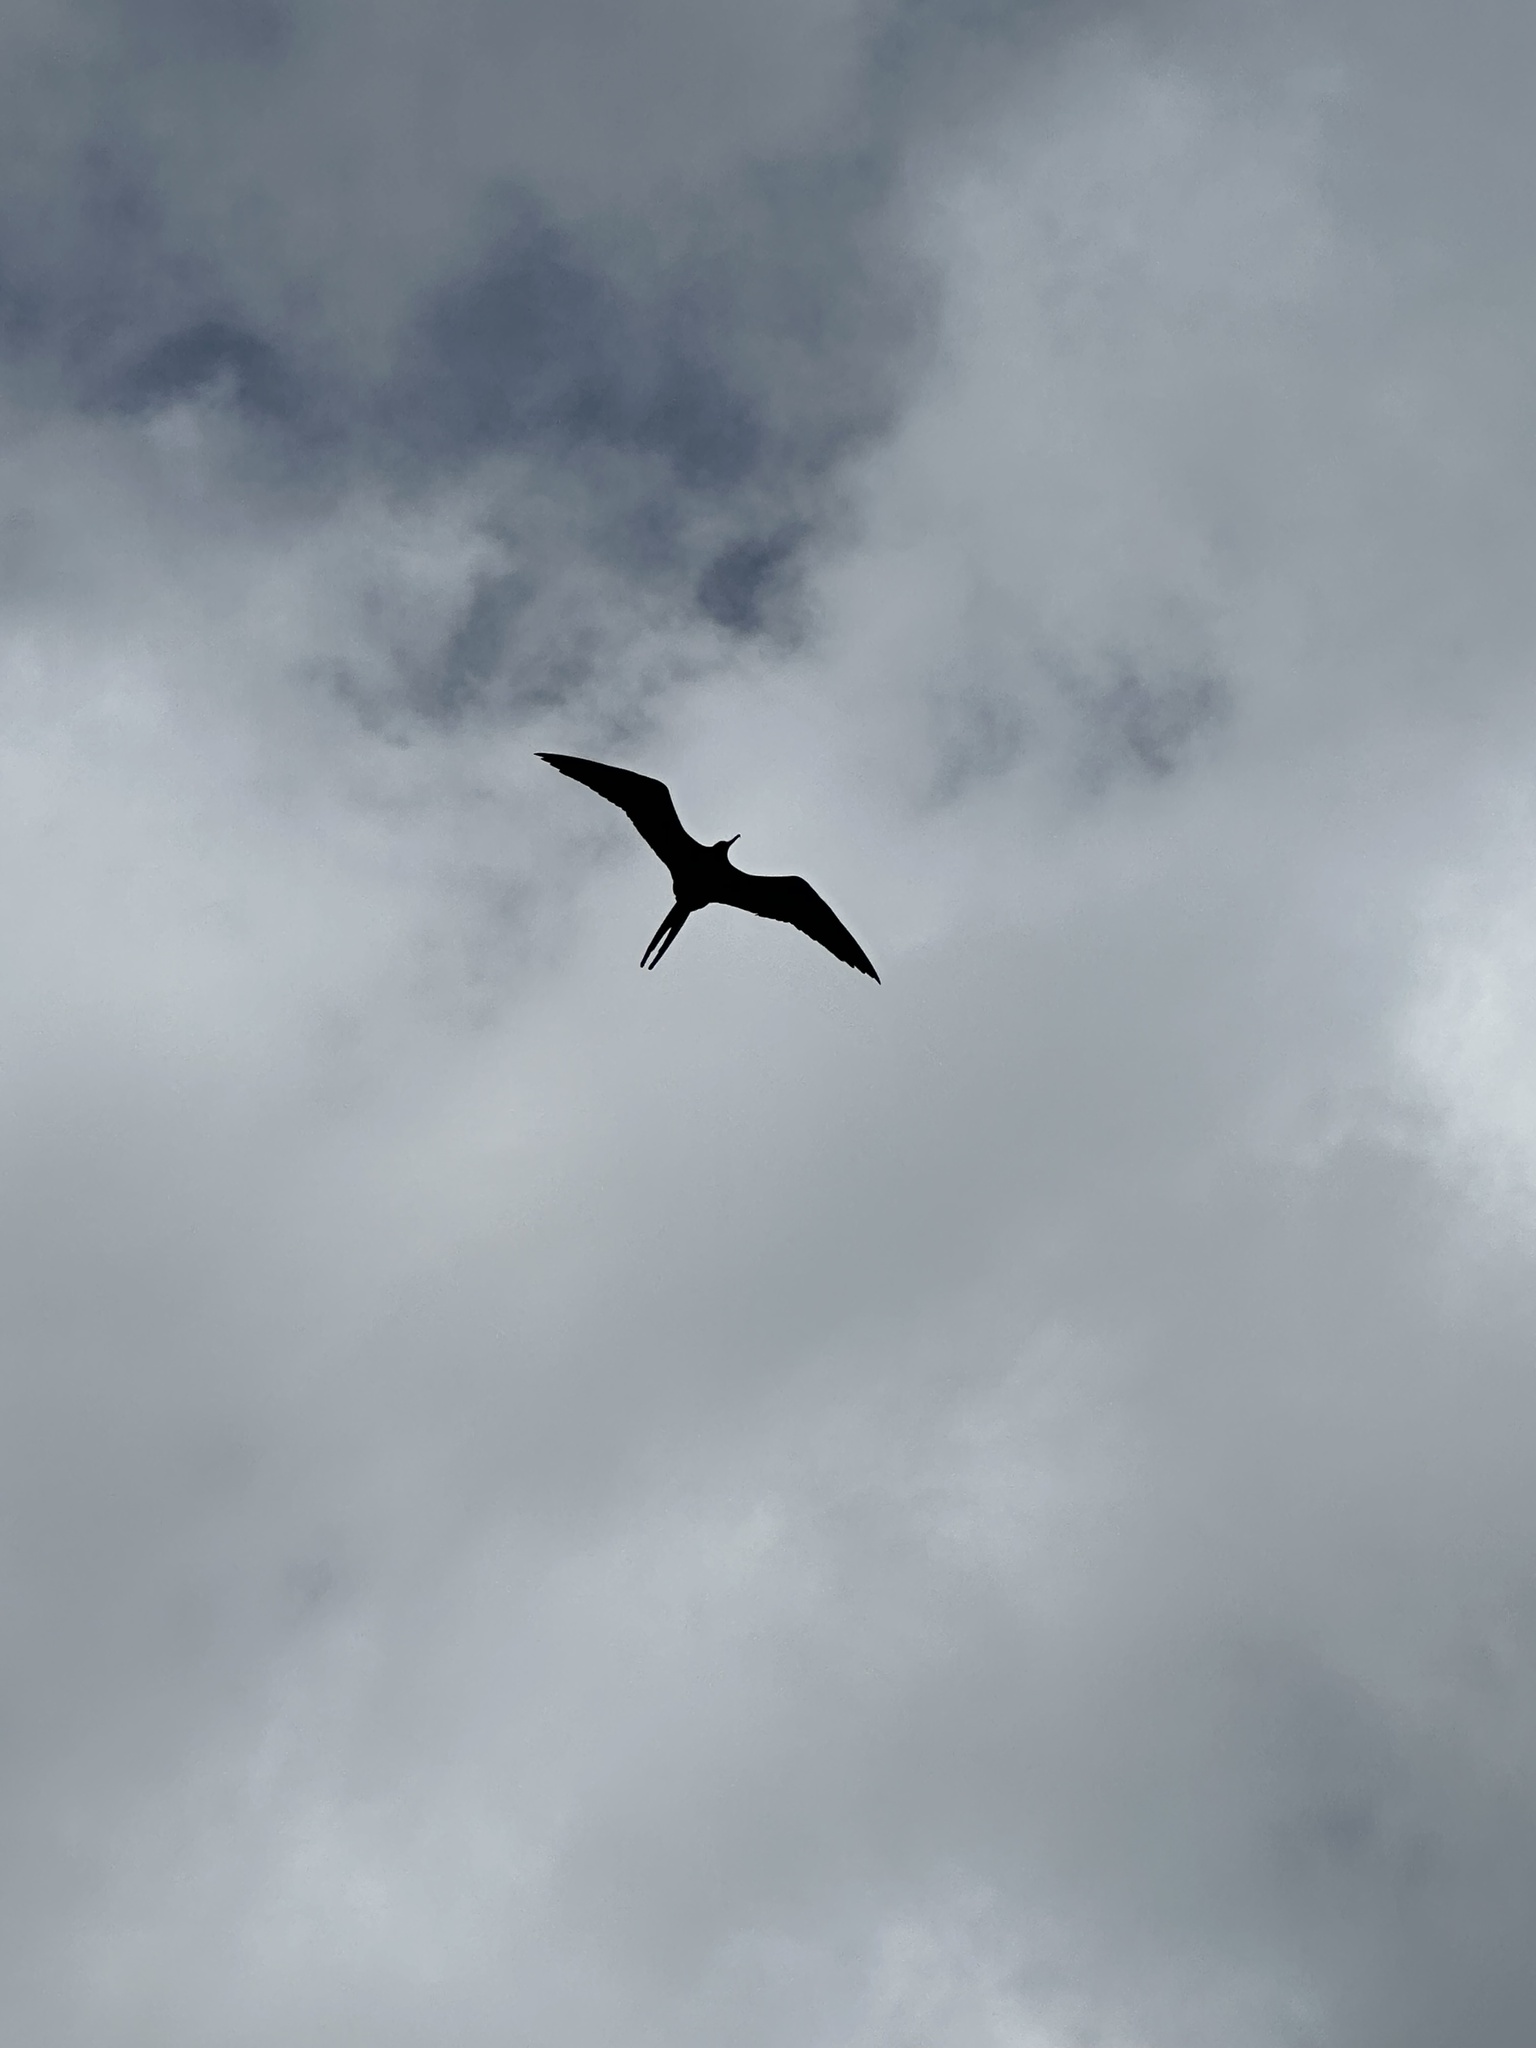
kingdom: Animalia
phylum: Chordata
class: Aves
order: Suliformes
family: Fregatidae
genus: Fregata
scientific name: Fregata magnificens
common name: Magnificent frigatebird
